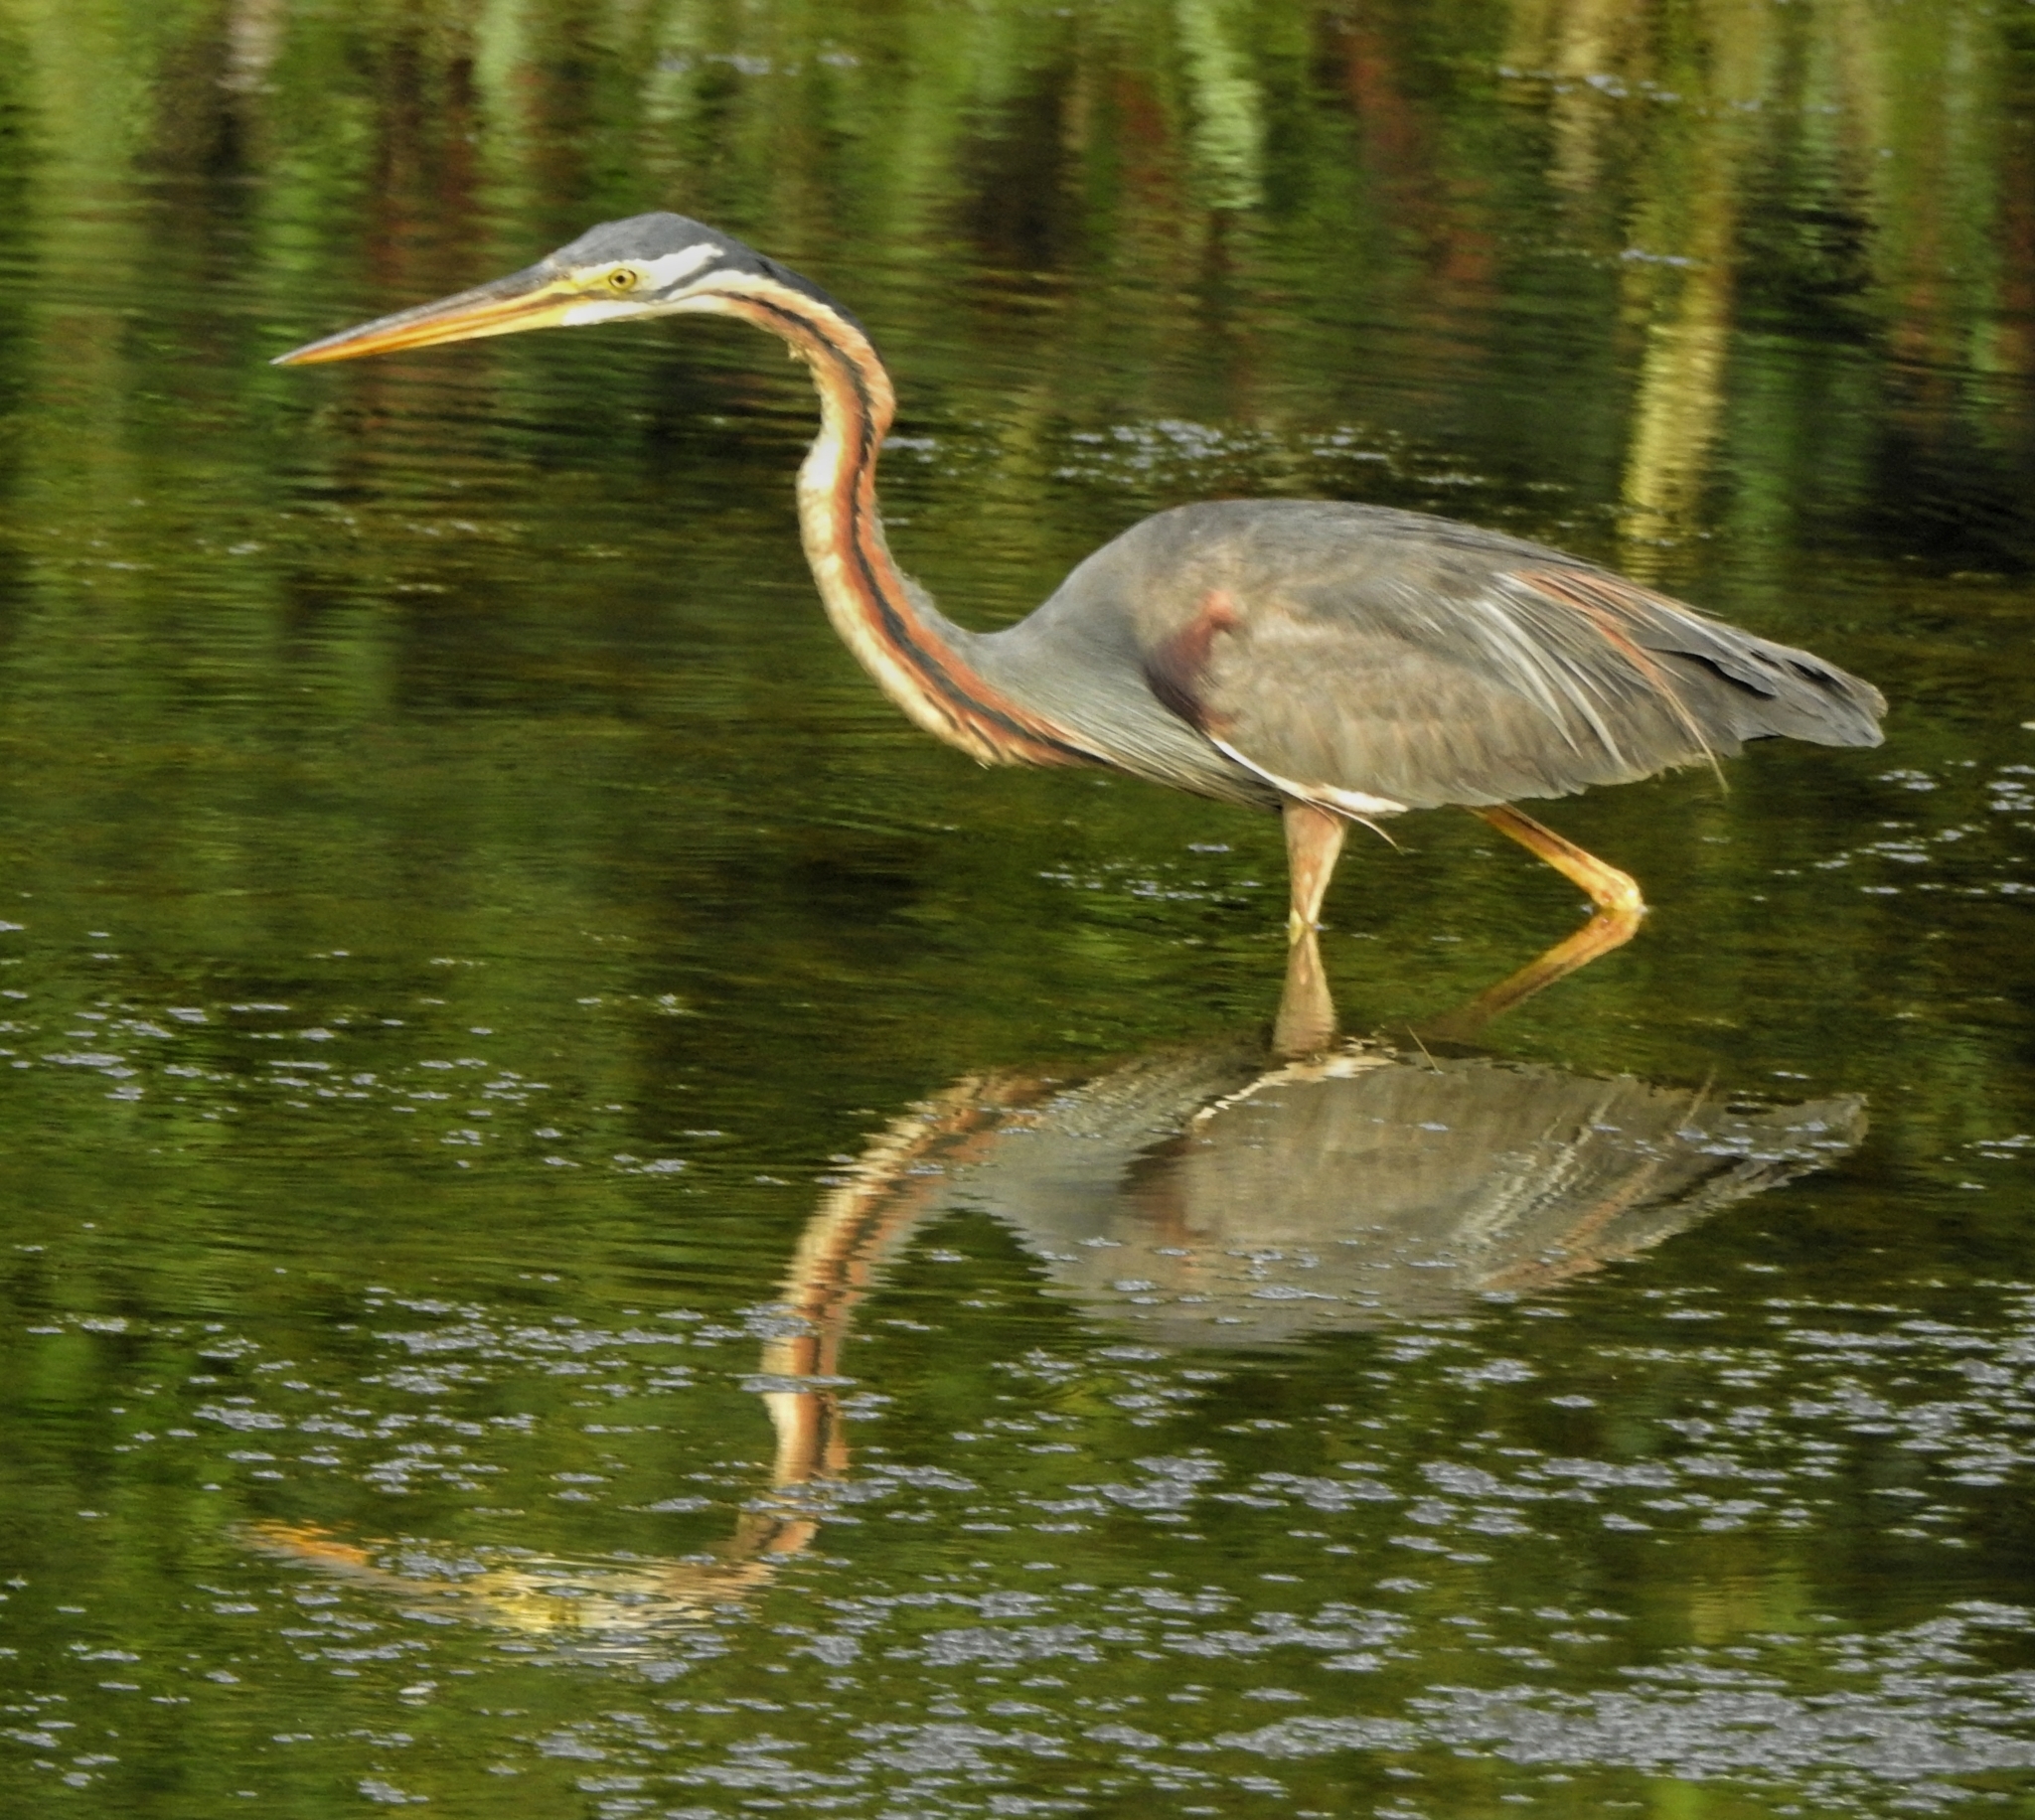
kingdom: Animalia
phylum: Chordata
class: Aves
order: Pelecaniformes
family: Ardeidae
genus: Ardea
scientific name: Ardea purpurea
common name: Purple heron
